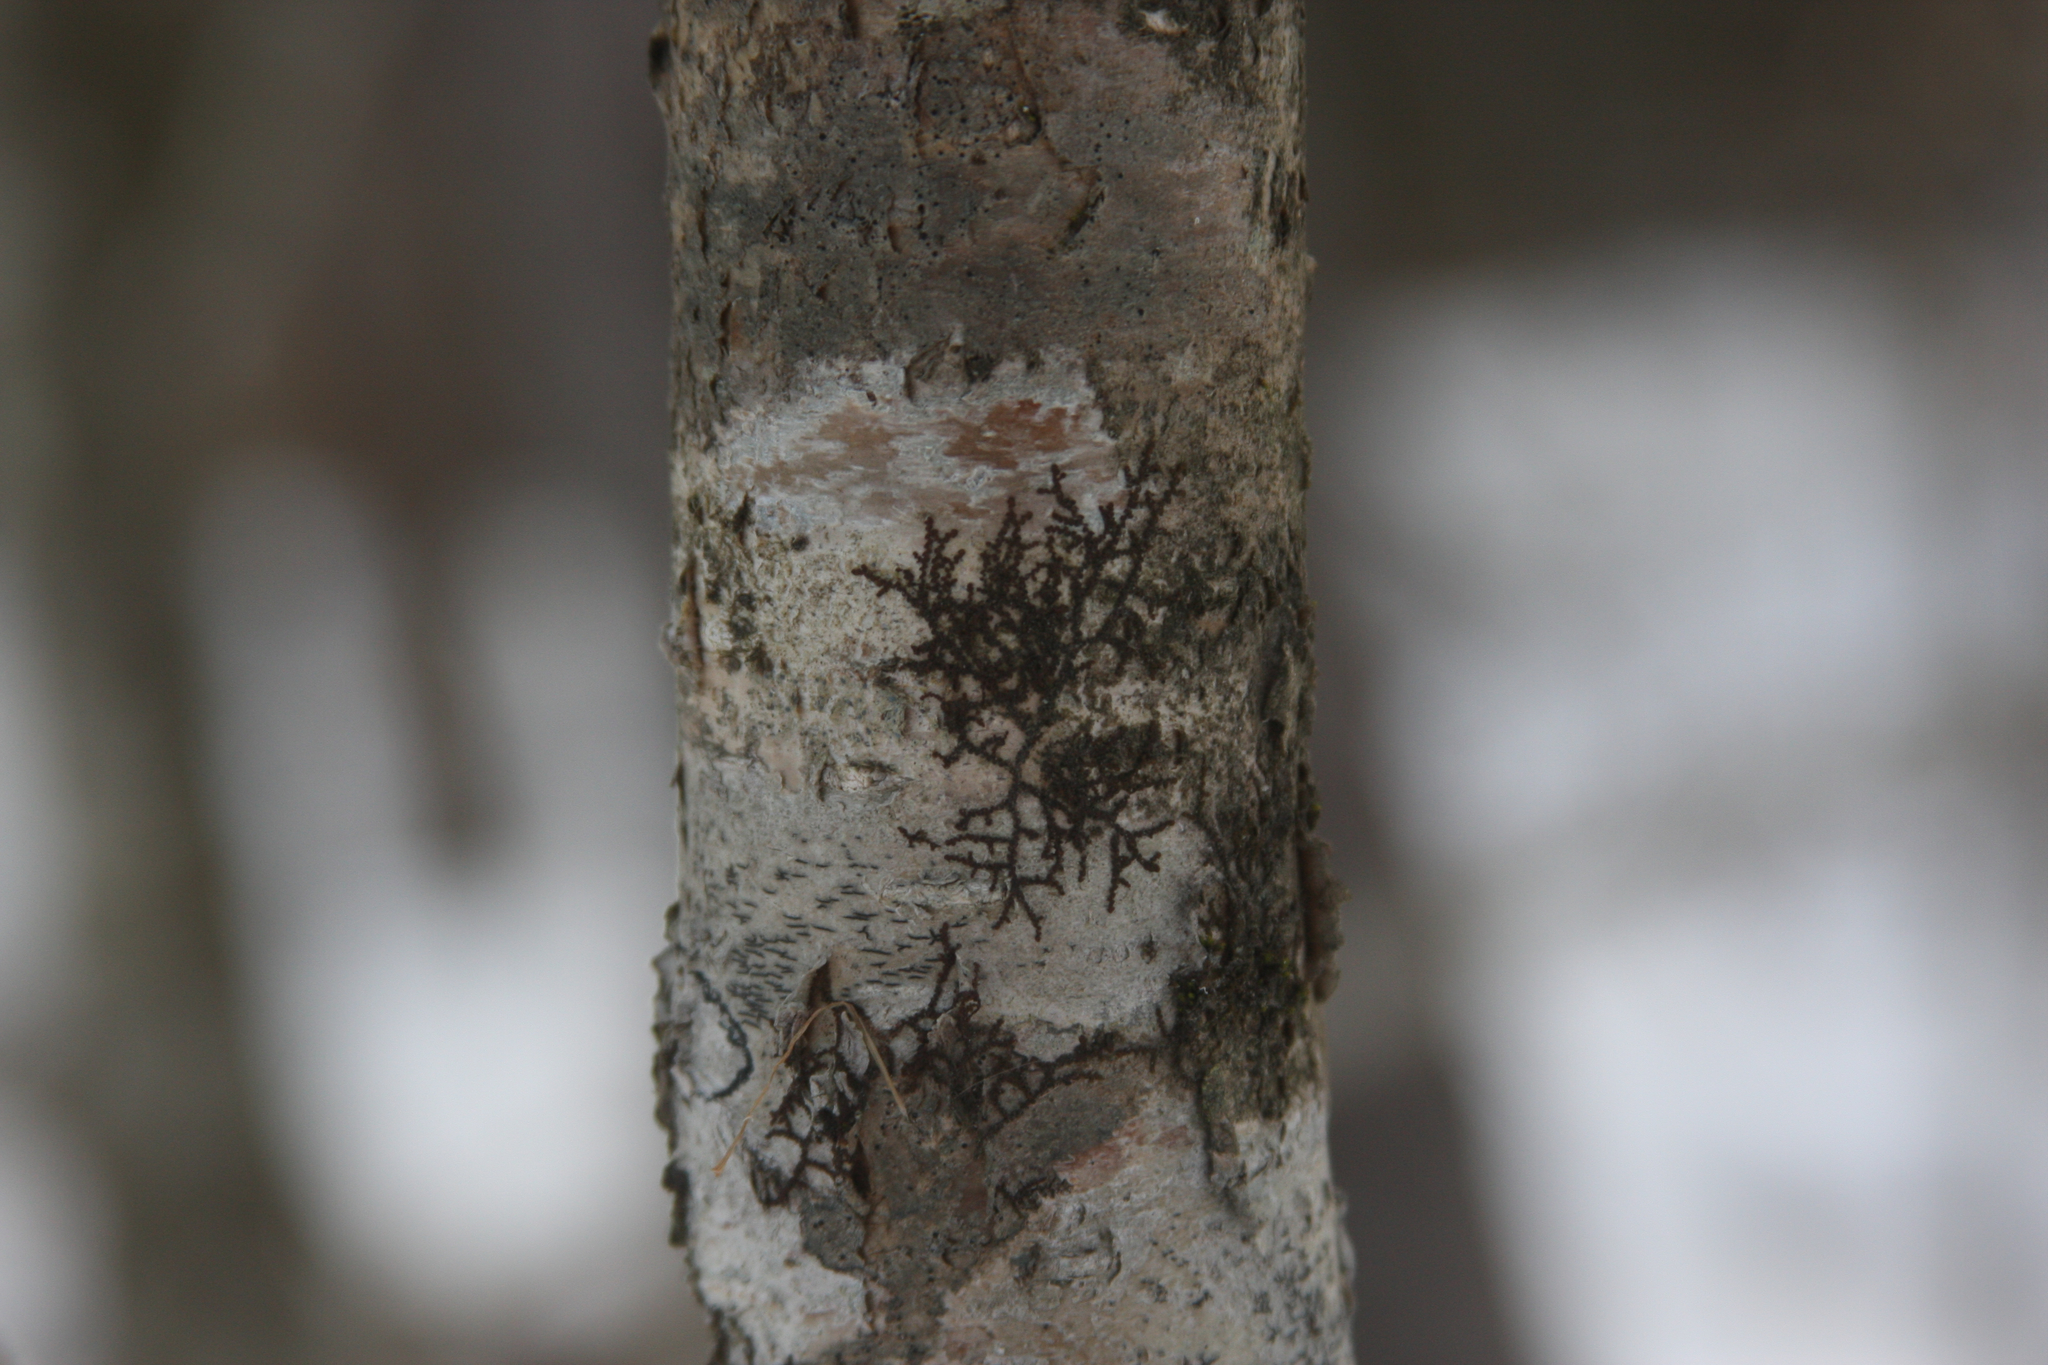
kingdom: Plantae
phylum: Marchantiophyta
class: Jungermanniopsida
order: Porellales
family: Frullaniaceae
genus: Frullania
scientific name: Frullania eboracensis
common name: New york scalewort
